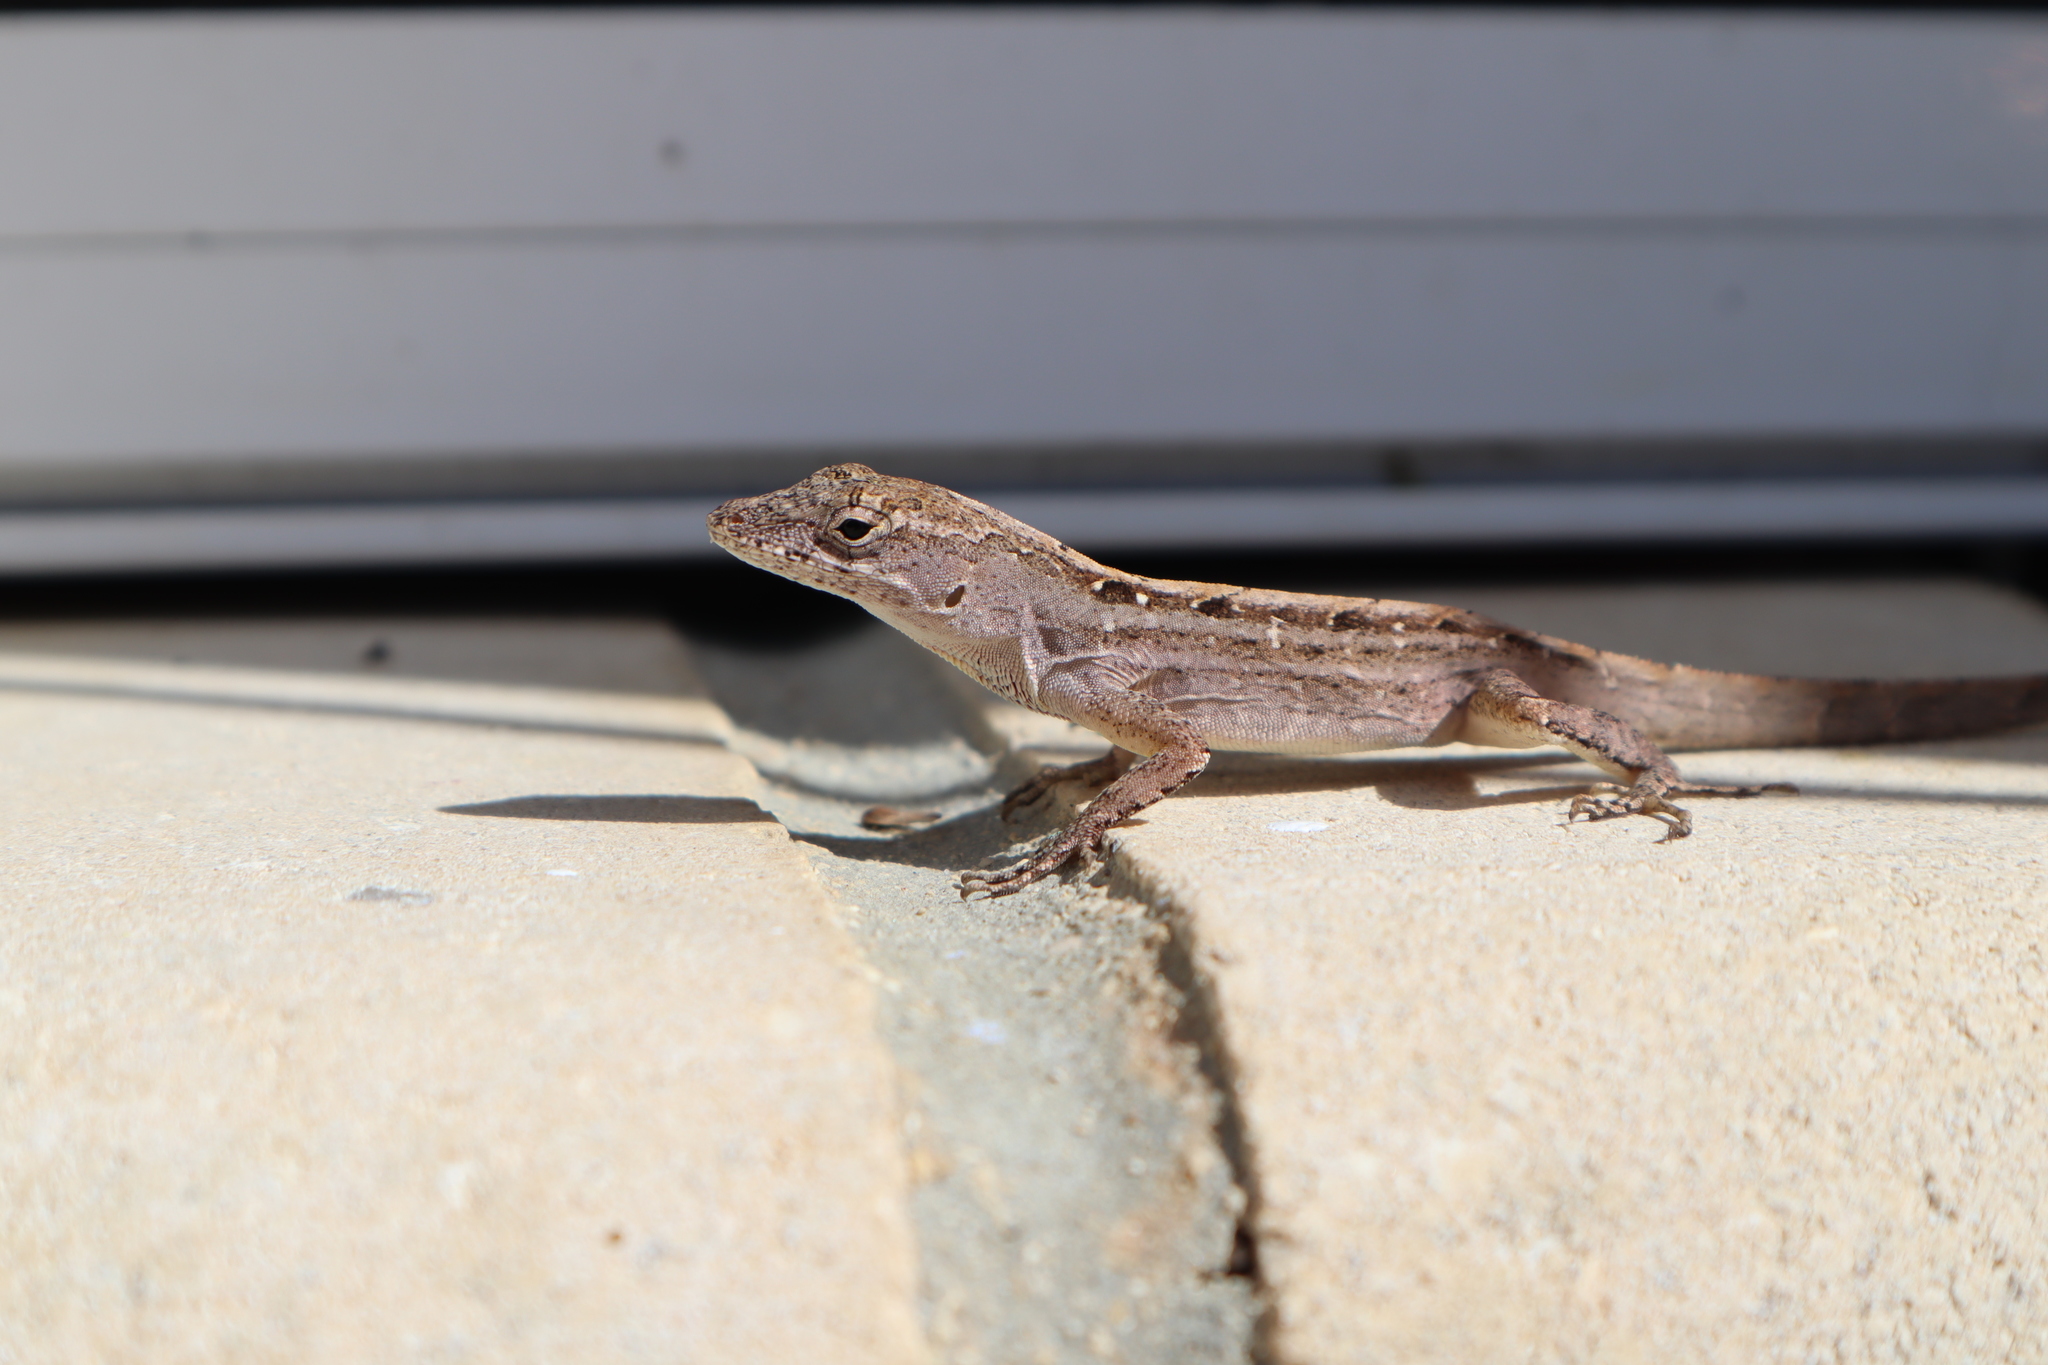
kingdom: Animalia
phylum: Chordata
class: Squamata
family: Dactyloidae
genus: Anolis
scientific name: Anolis sagrei
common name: Brown anole
